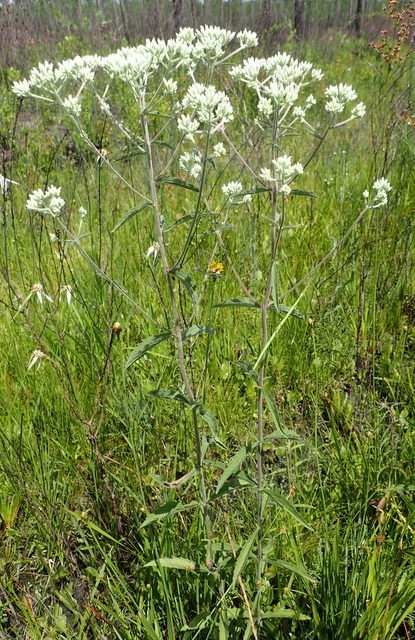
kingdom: Plantae
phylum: Tracheophyta
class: Magnoliopsida
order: Asterales
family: Asteraceae
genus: Eupatorium
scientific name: Eupatorium serotinum
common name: Late boneset
